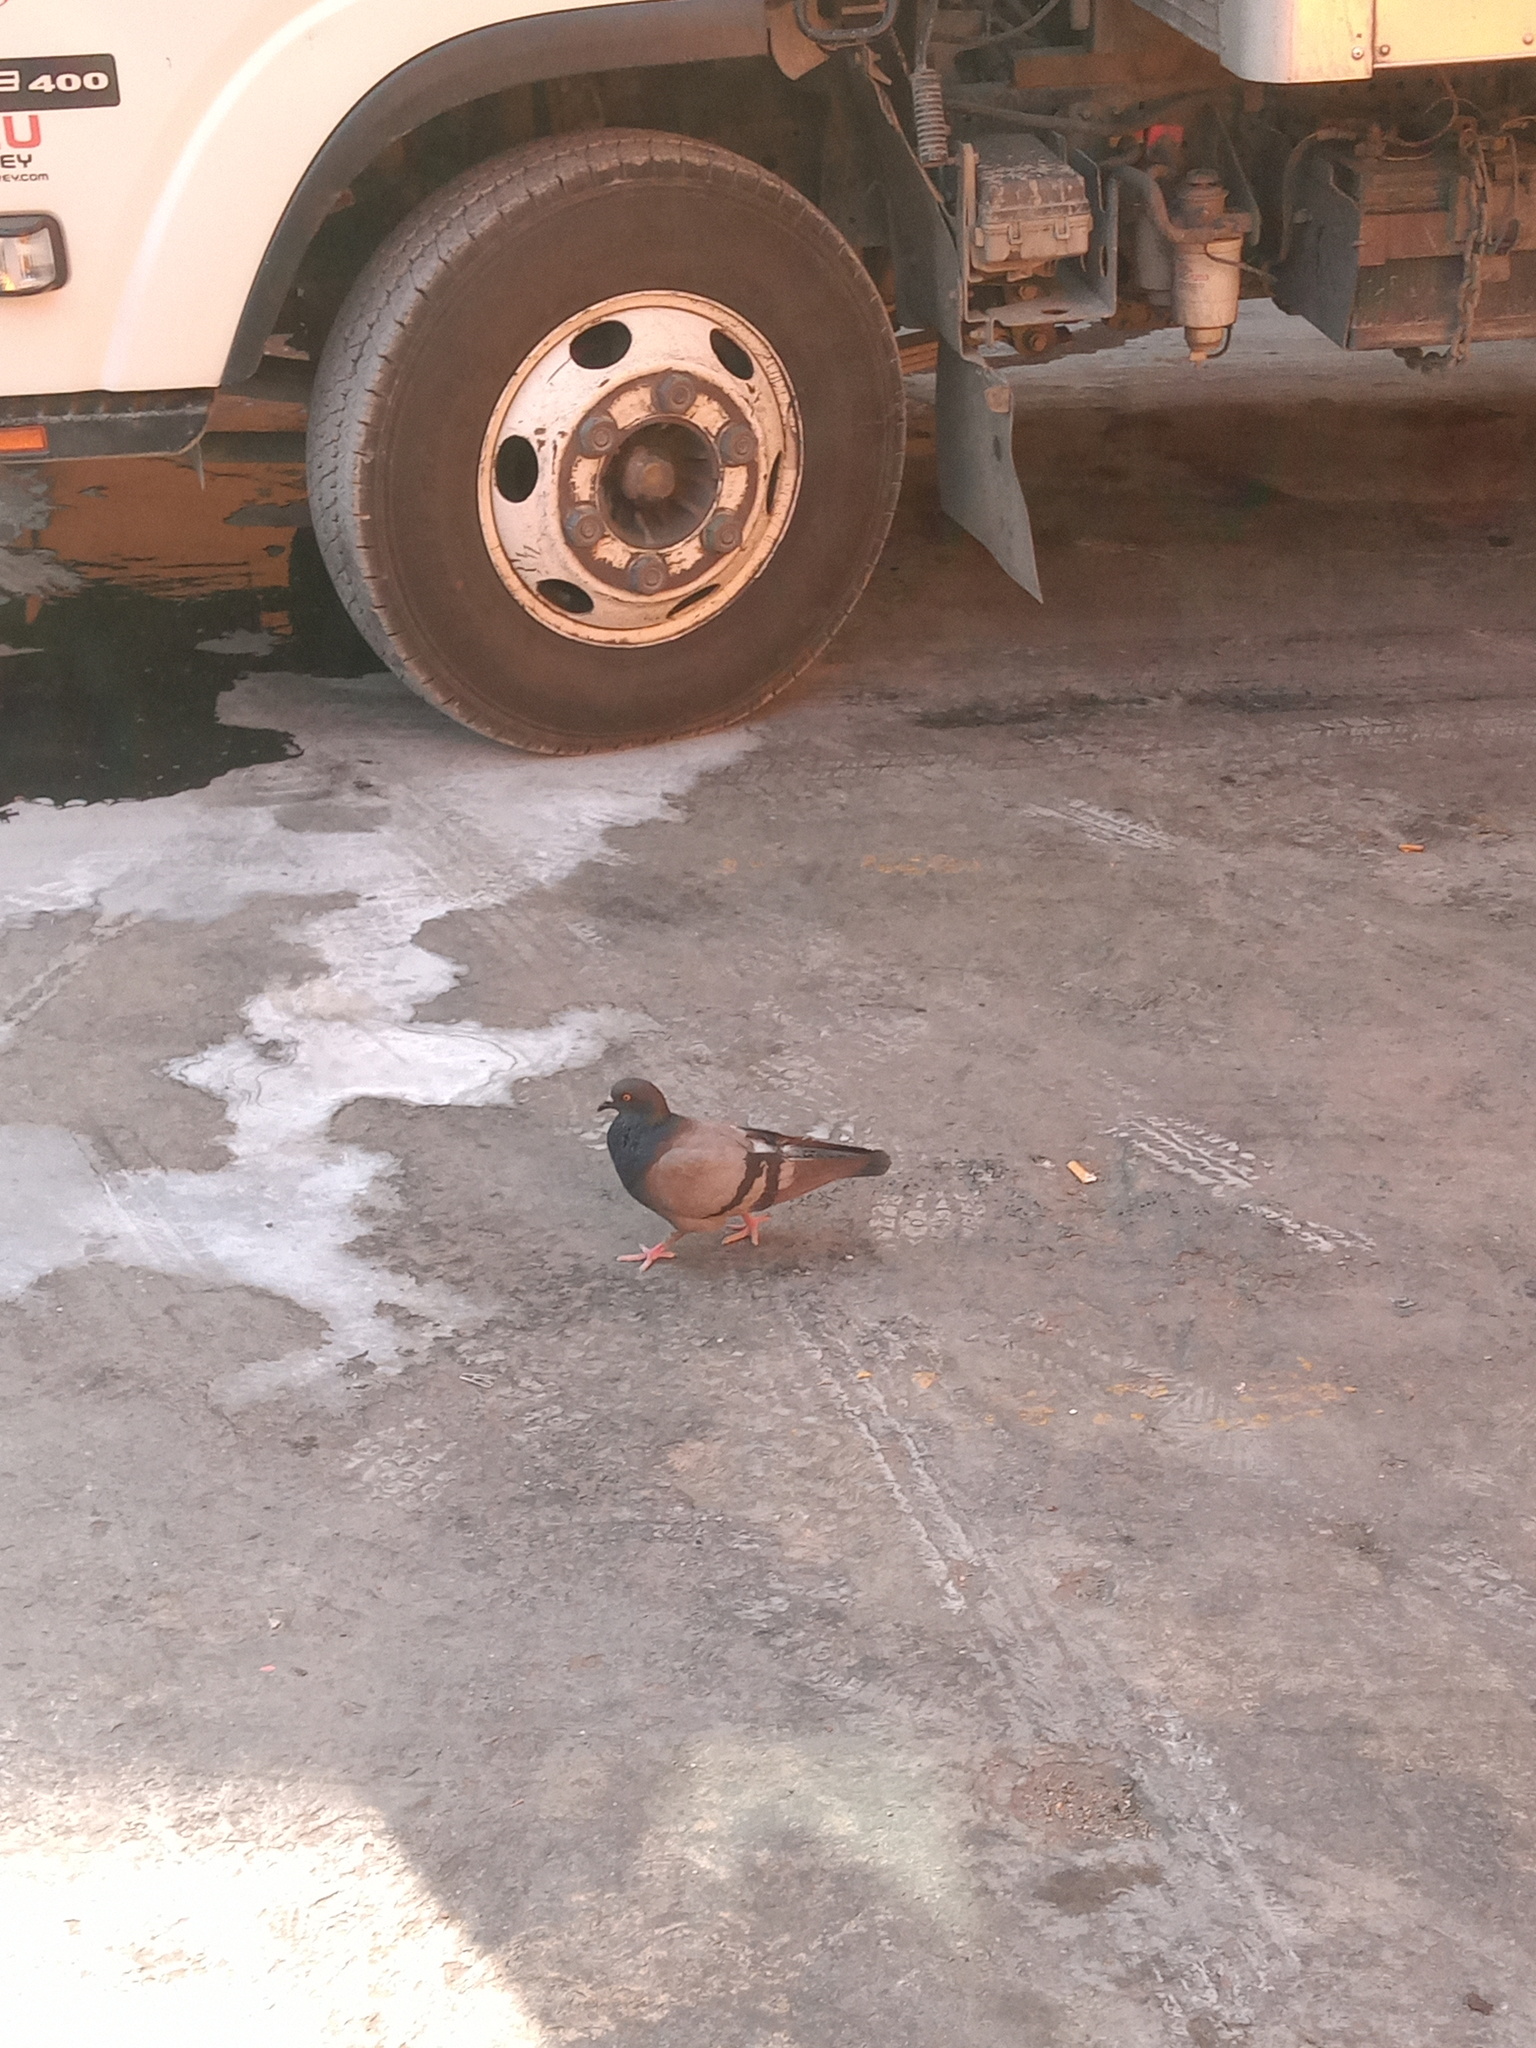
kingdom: Animalia
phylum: Chordata
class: Aves
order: Columbiformes
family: Columbidae
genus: Columba
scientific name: Columba livia
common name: Rock pigeon
